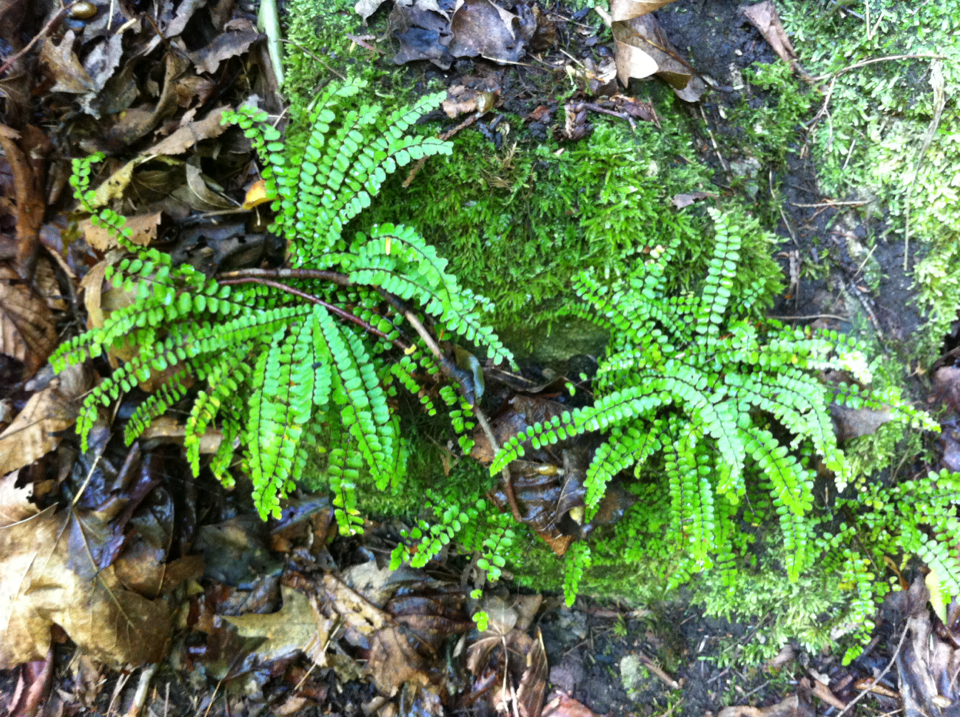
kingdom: Plantae
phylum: Tracheophyta
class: Polypodiopsida
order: Polypodiales
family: Aspleniaceae
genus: Asplenium
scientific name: Asplenium trichomanes
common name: Maidenhair spleenwort
